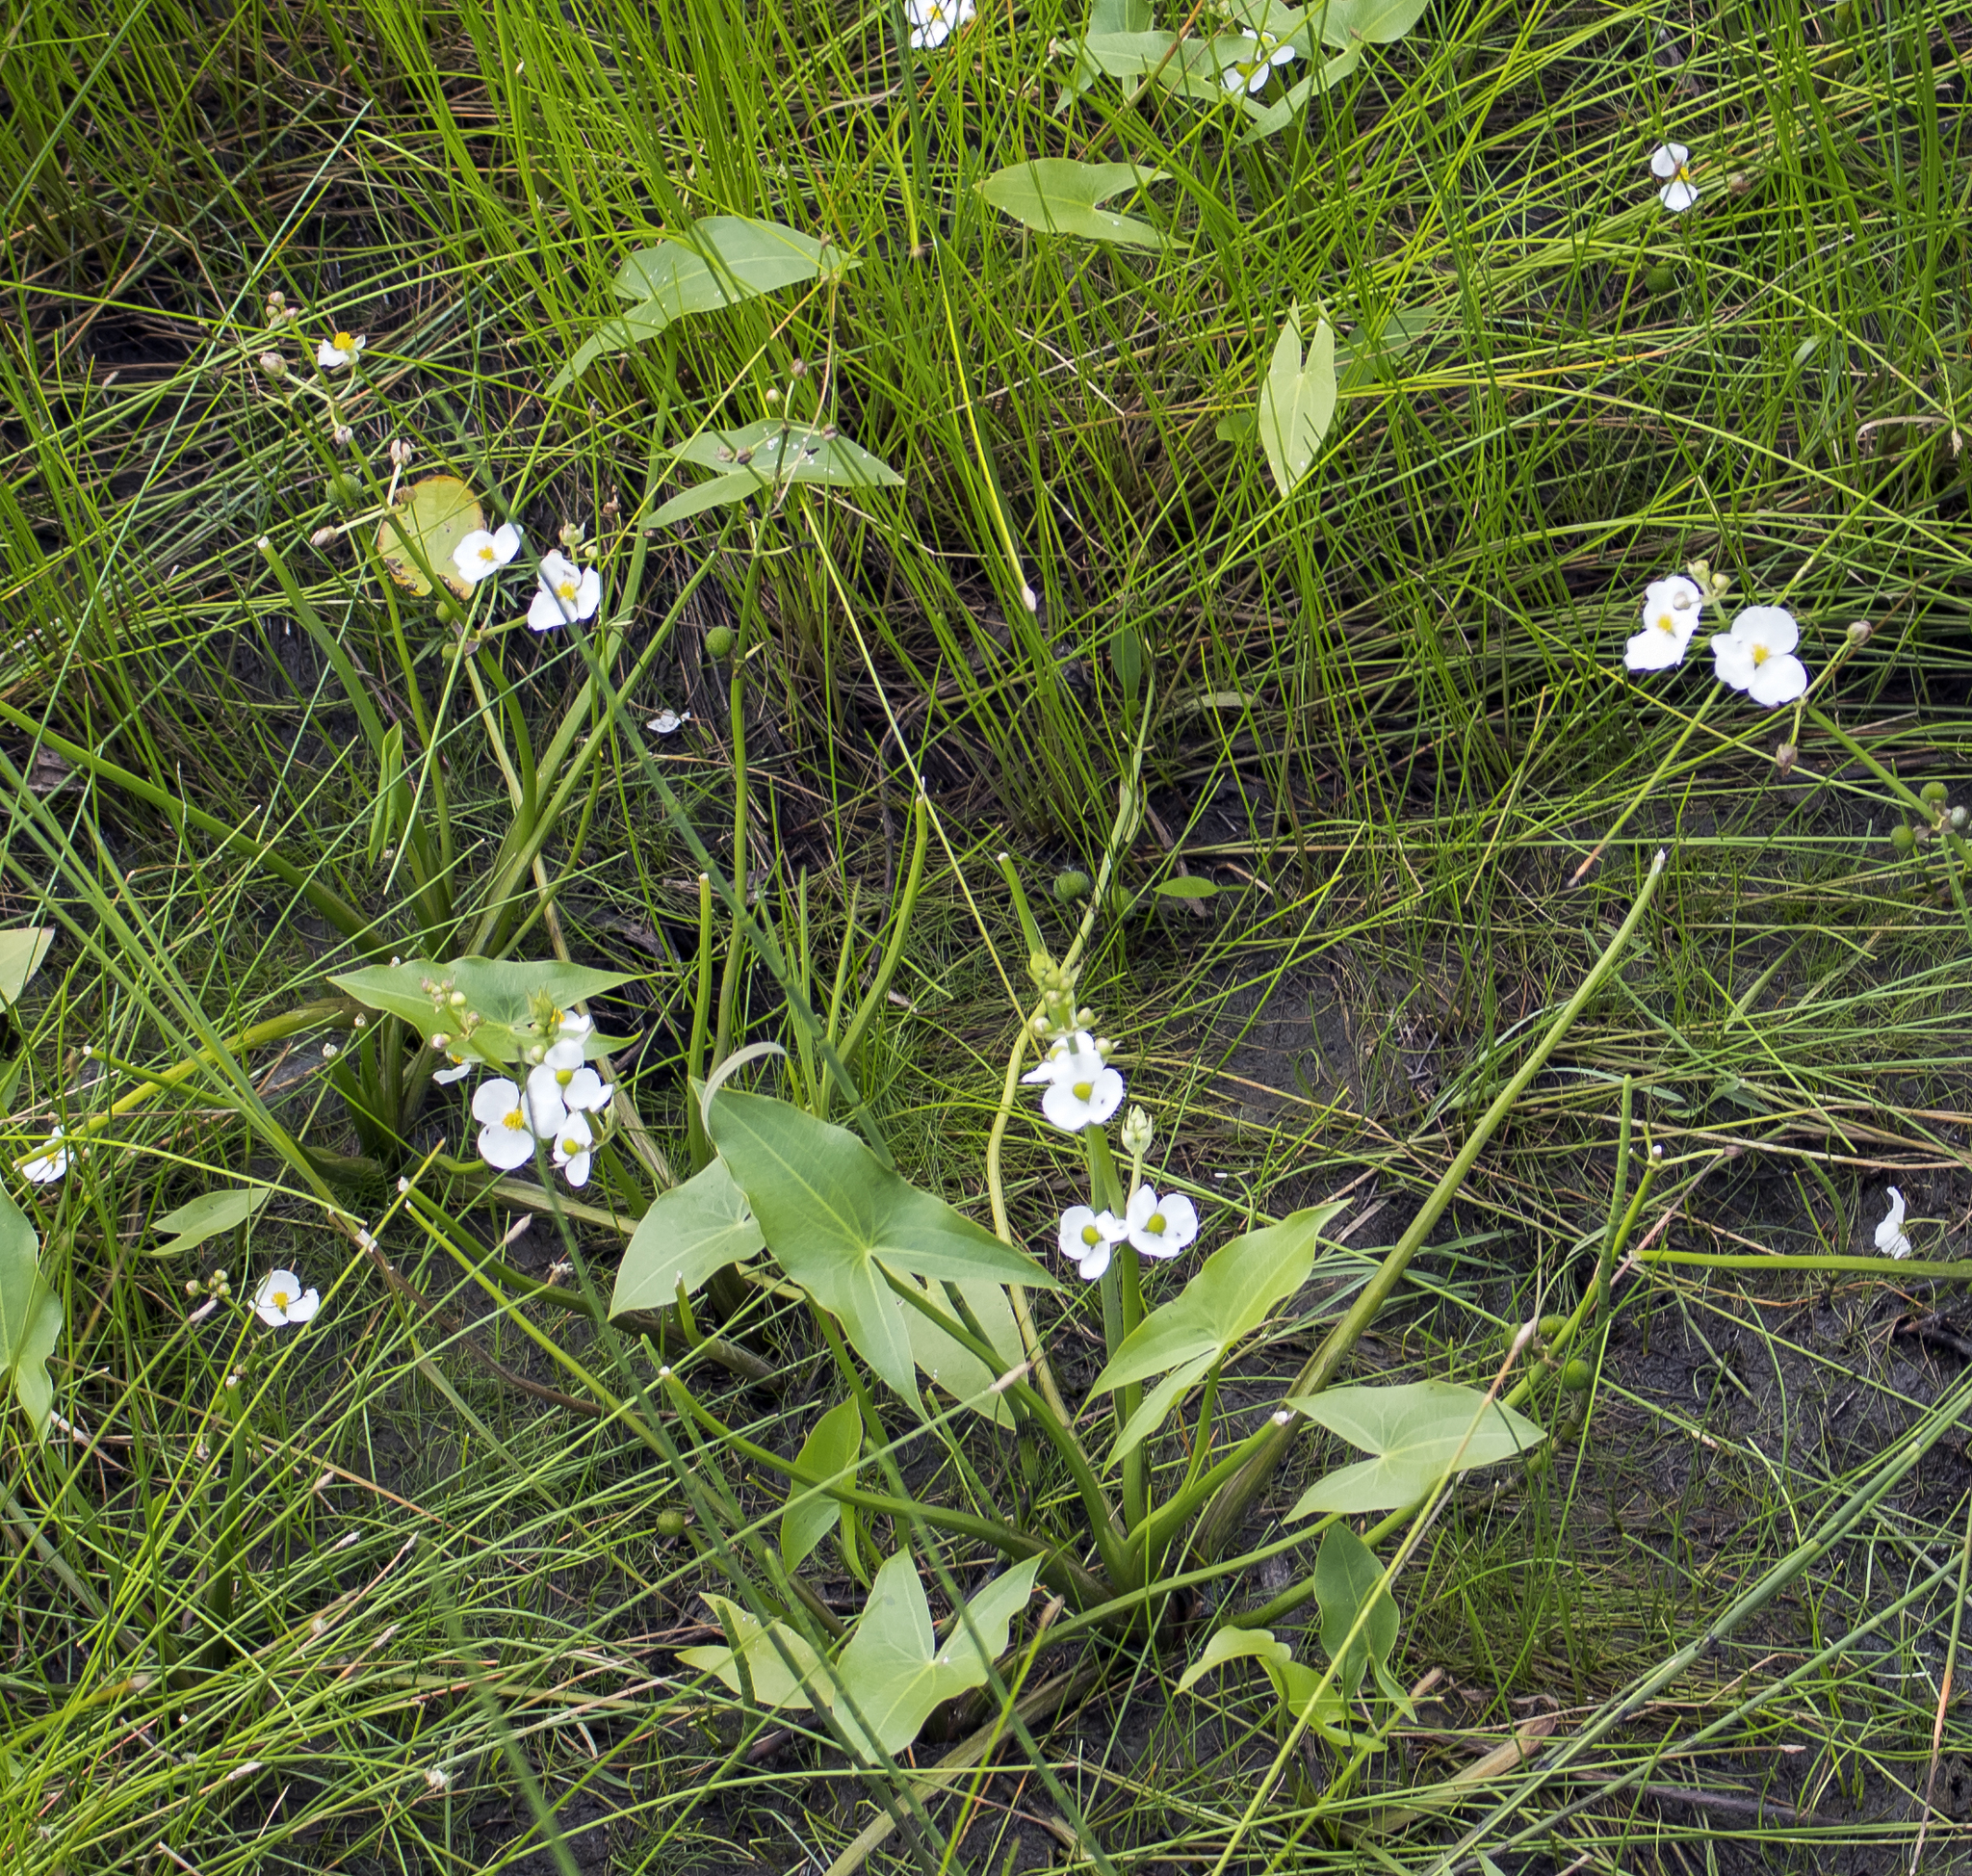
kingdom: Plantae
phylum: Tracheophyta
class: Liliopsida
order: Alismatales
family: Alismataceae
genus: Sagittaria
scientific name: Sagittaria cuneata
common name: Northern arrowhead
